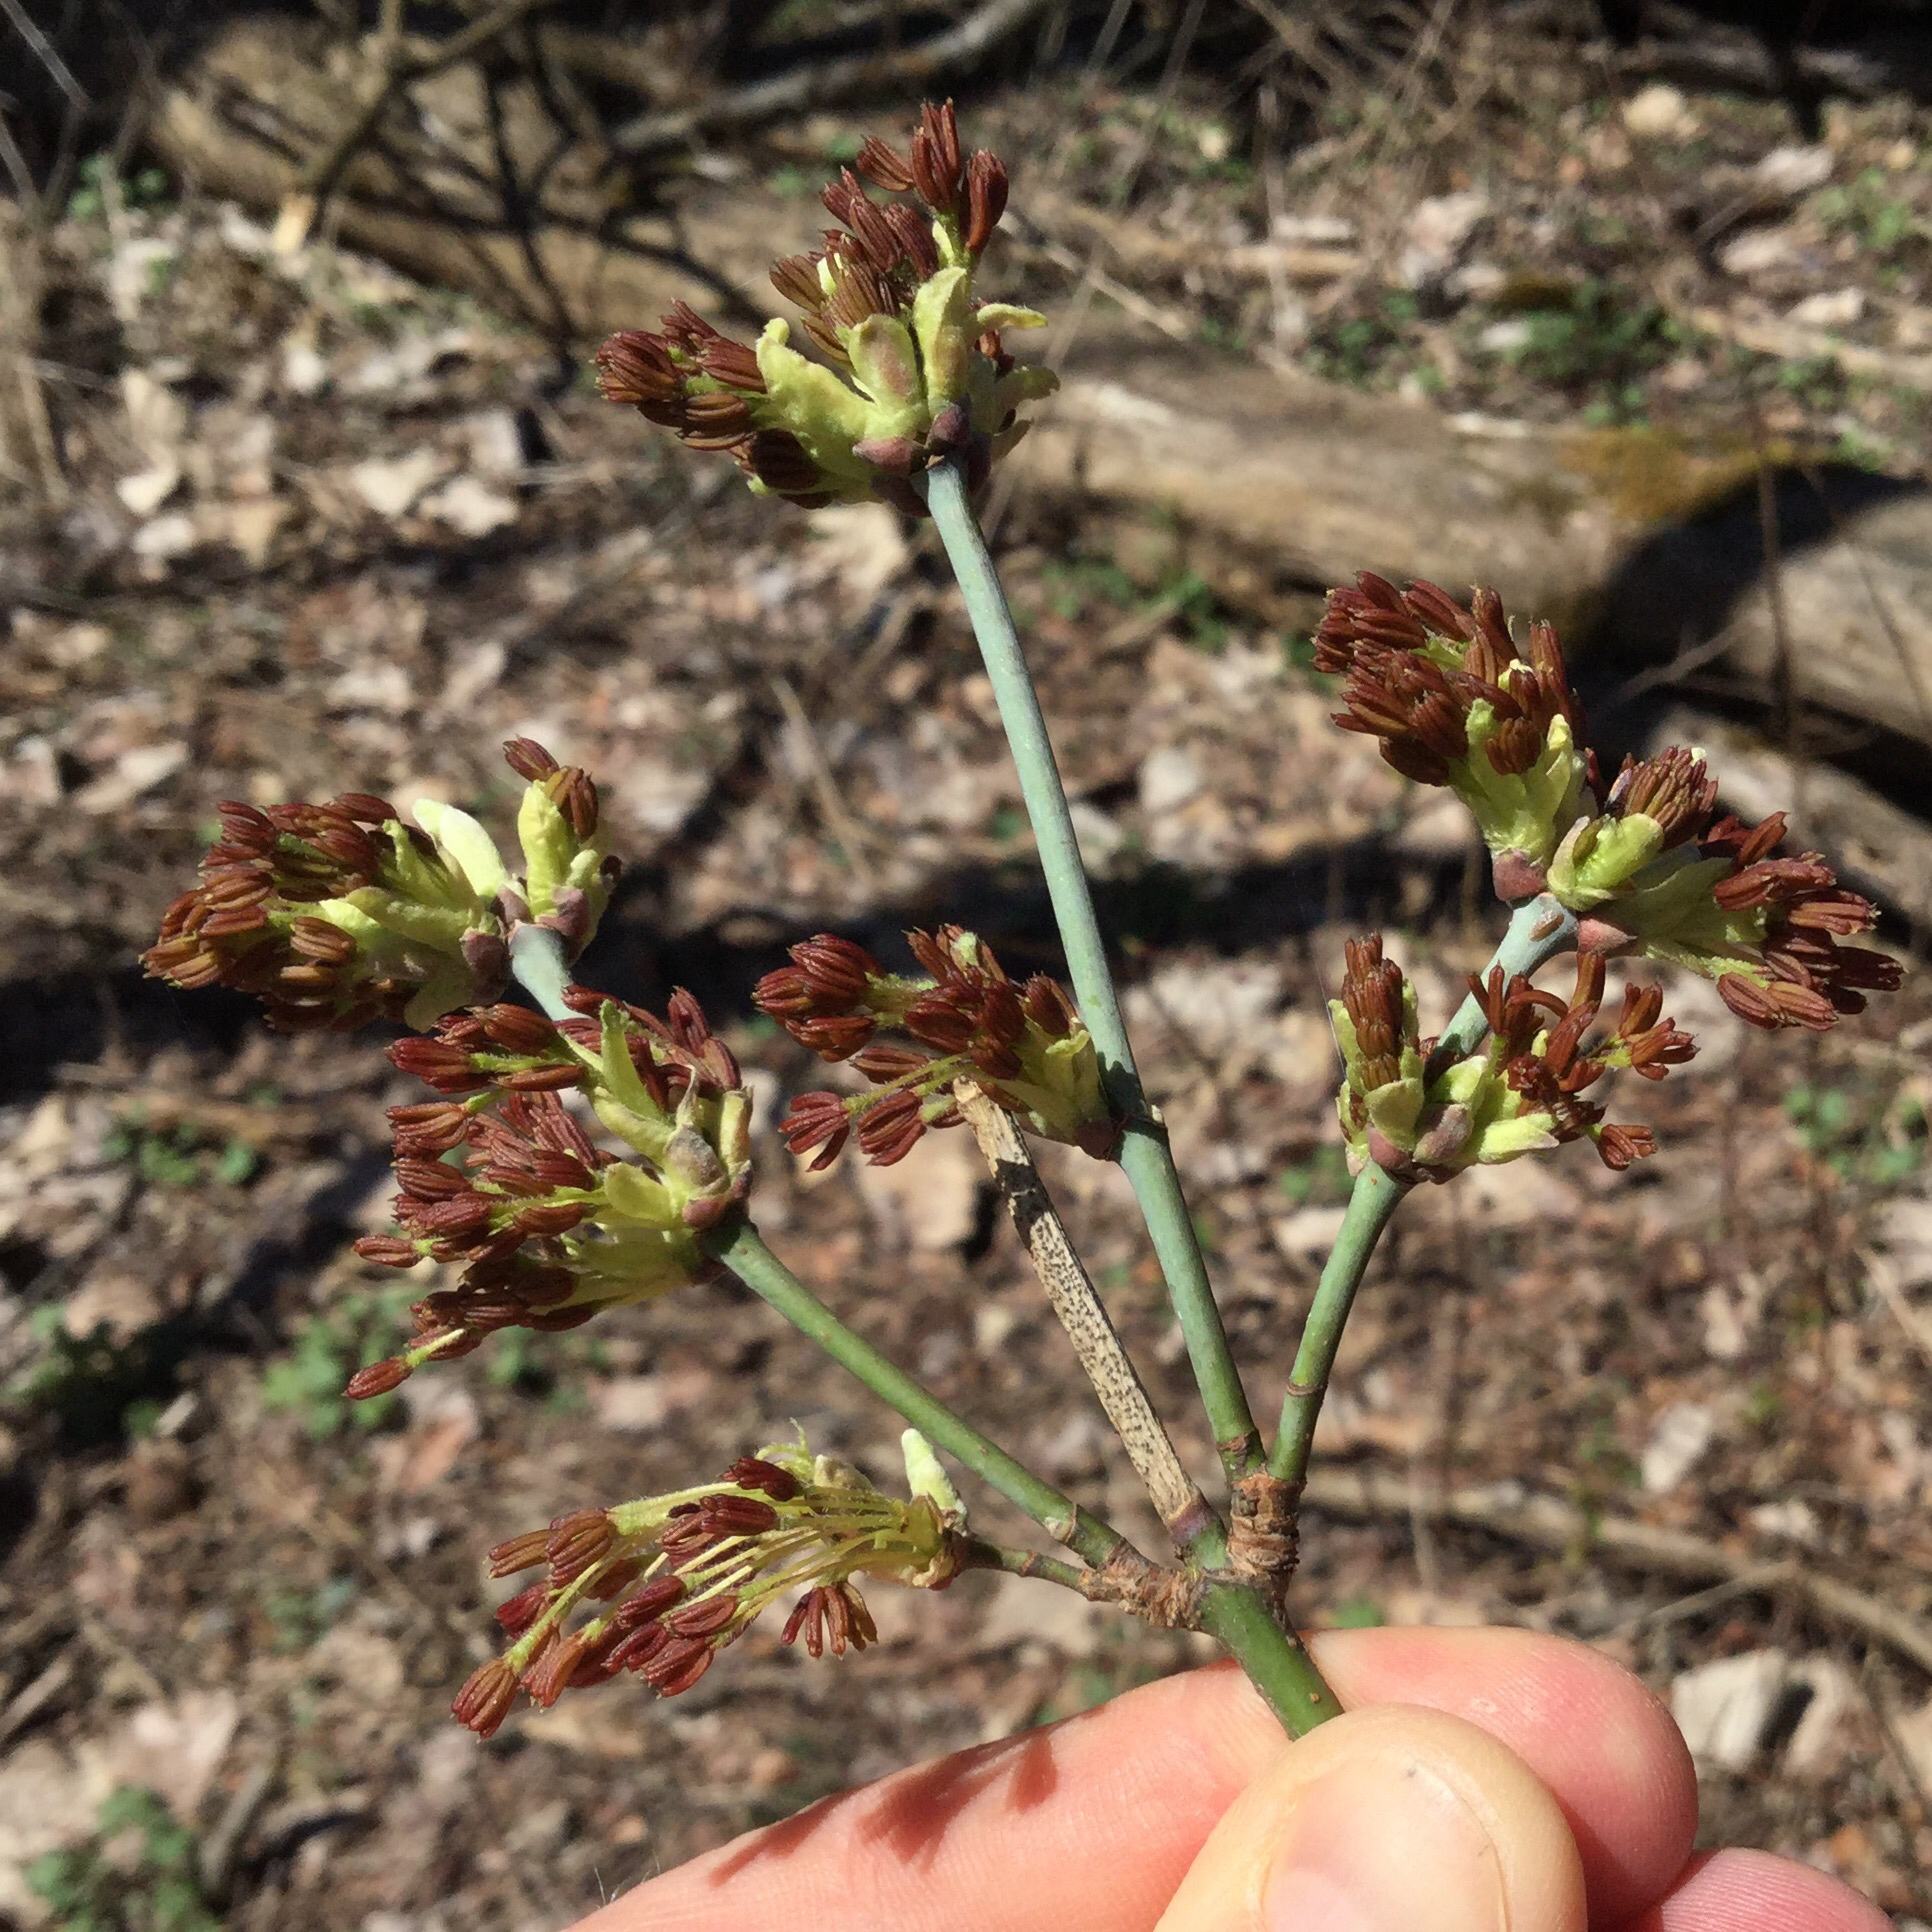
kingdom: Plantae
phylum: Tracheophyta
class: Magnoliopsida
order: Sapindales
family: Sapindaceae
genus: Acer
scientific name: Acer negundo
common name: Ashleaf maple
